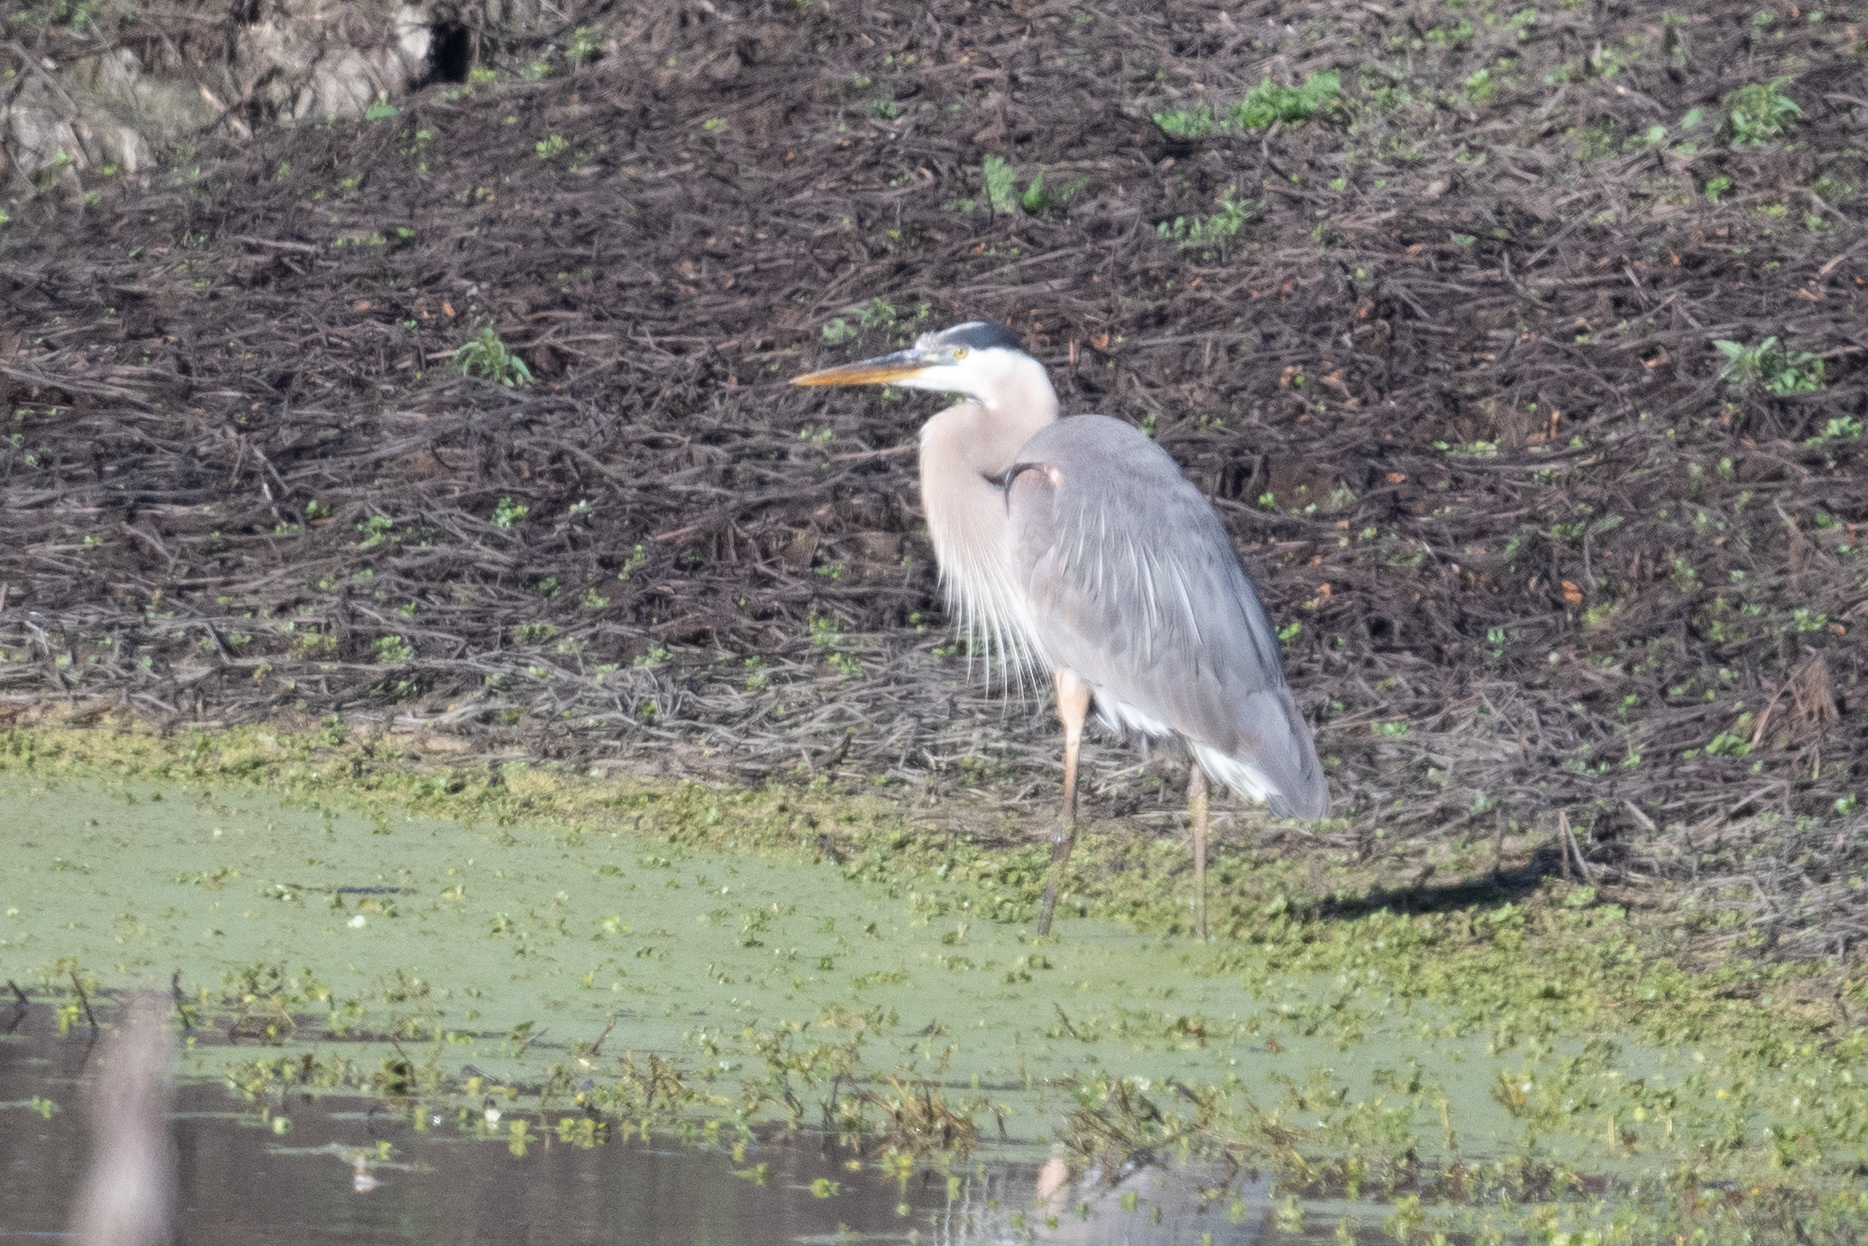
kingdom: Animalia
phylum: Chordata
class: Aves
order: Pelecaniformes
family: Ardeidae
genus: Ardea
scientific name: Ardea herodias
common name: Great blue heron
